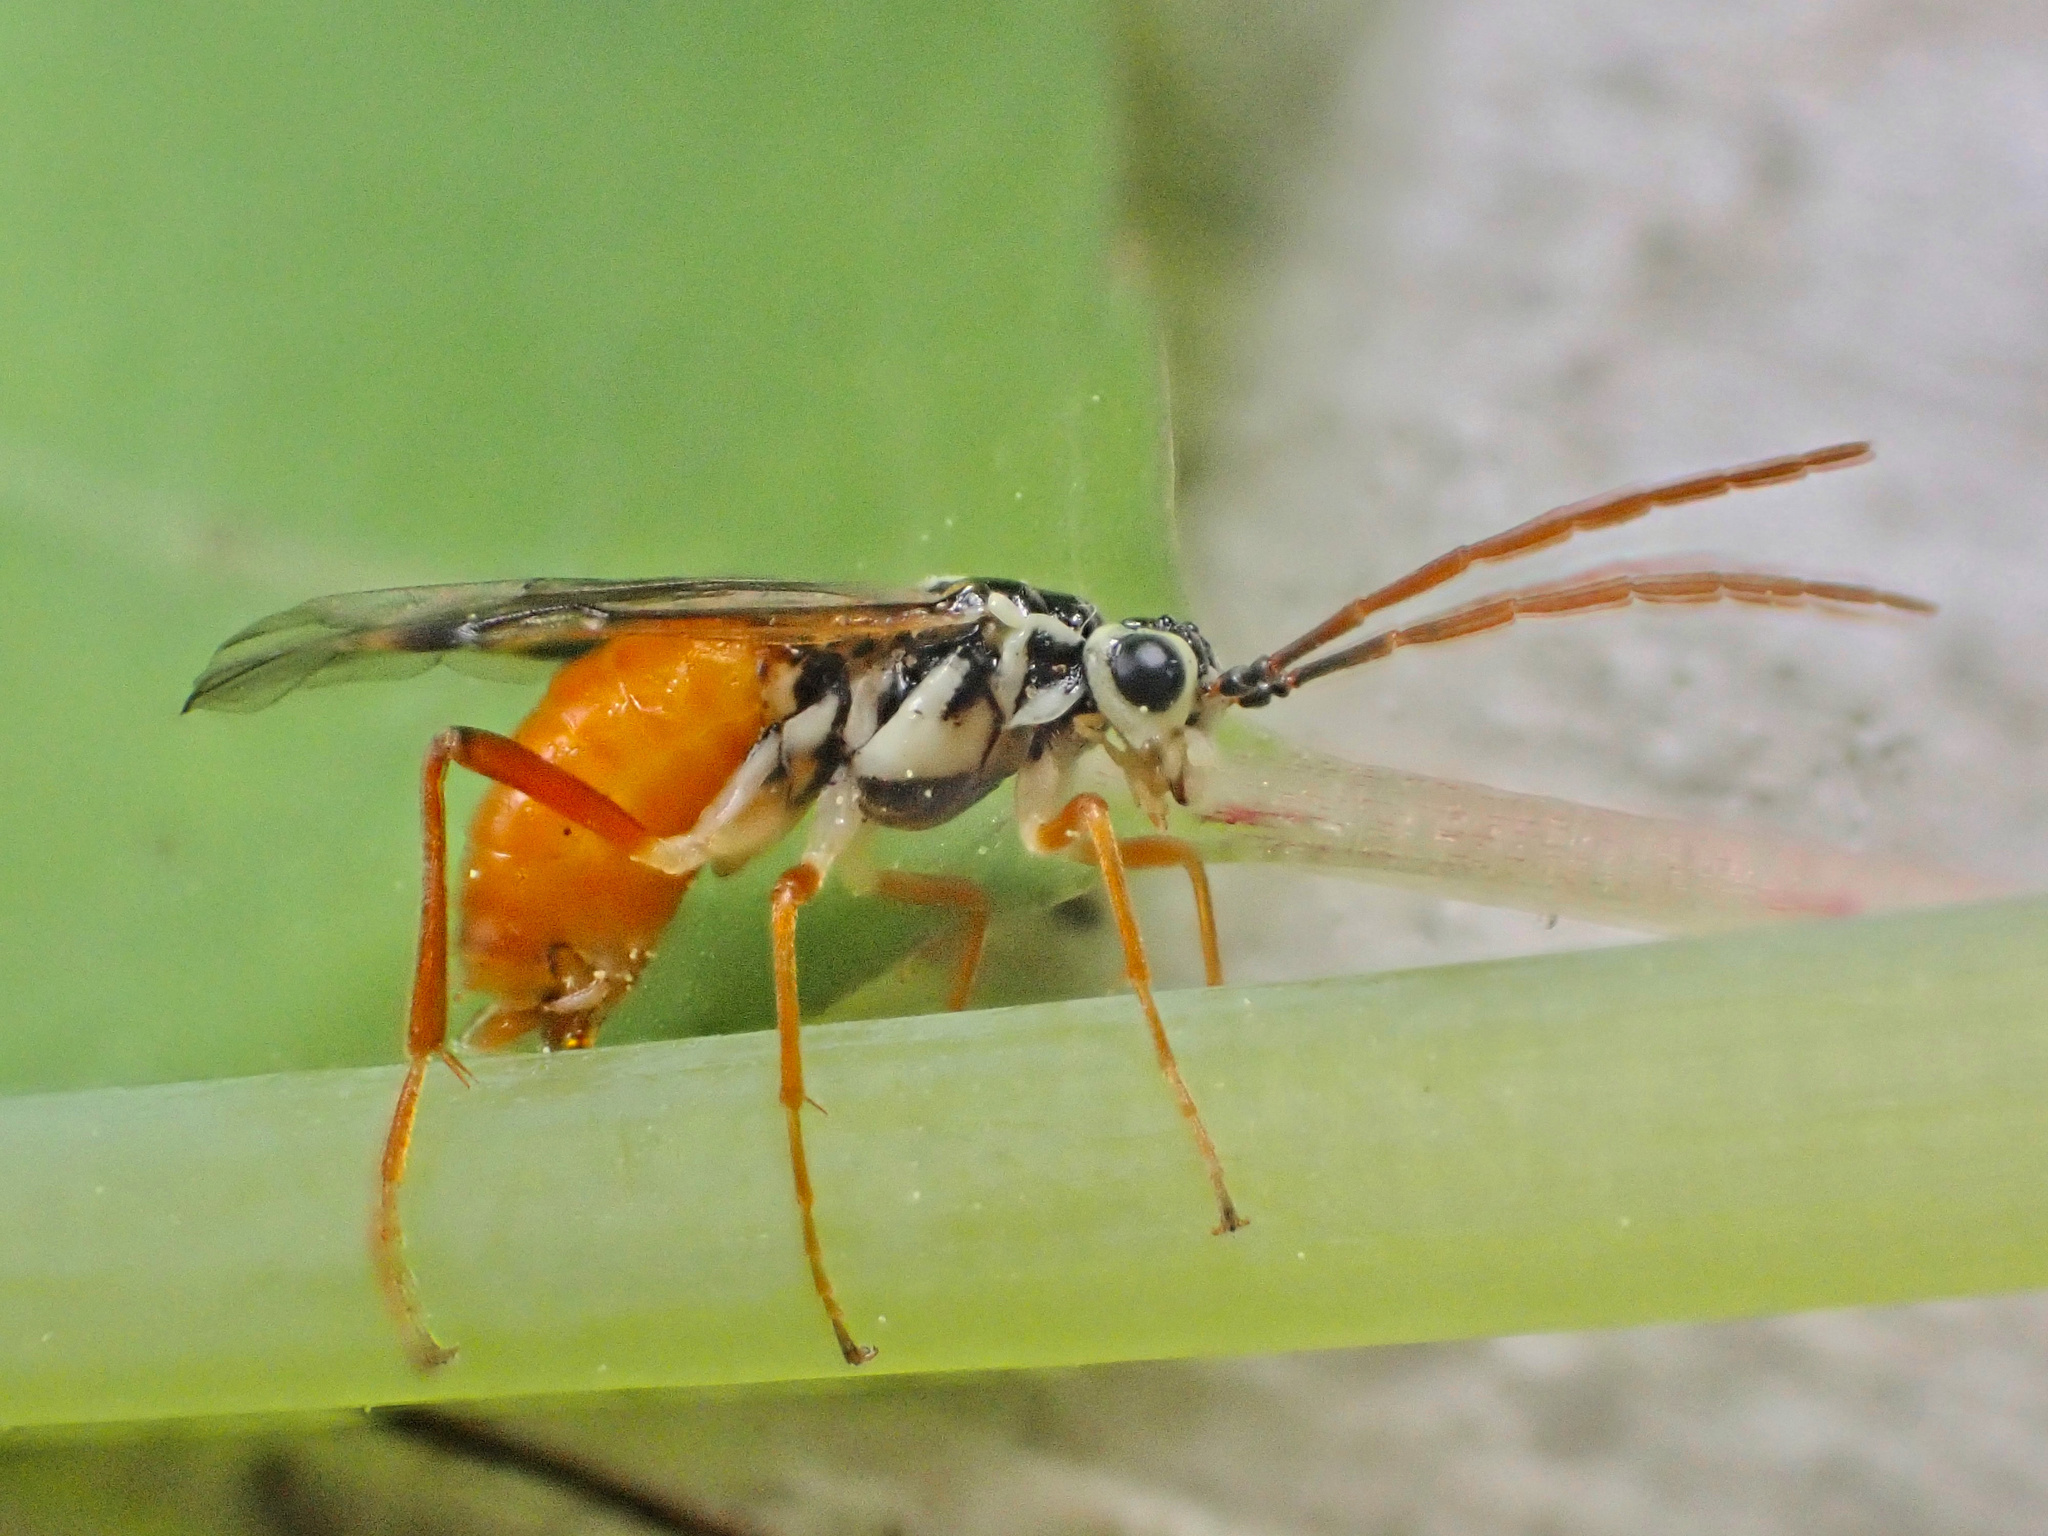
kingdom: Animalia
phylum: Arthropoda
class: Insecta
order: Hymenoptera
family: Tenthredinidae
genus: Aglaostigma
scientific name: Aglaostigma
